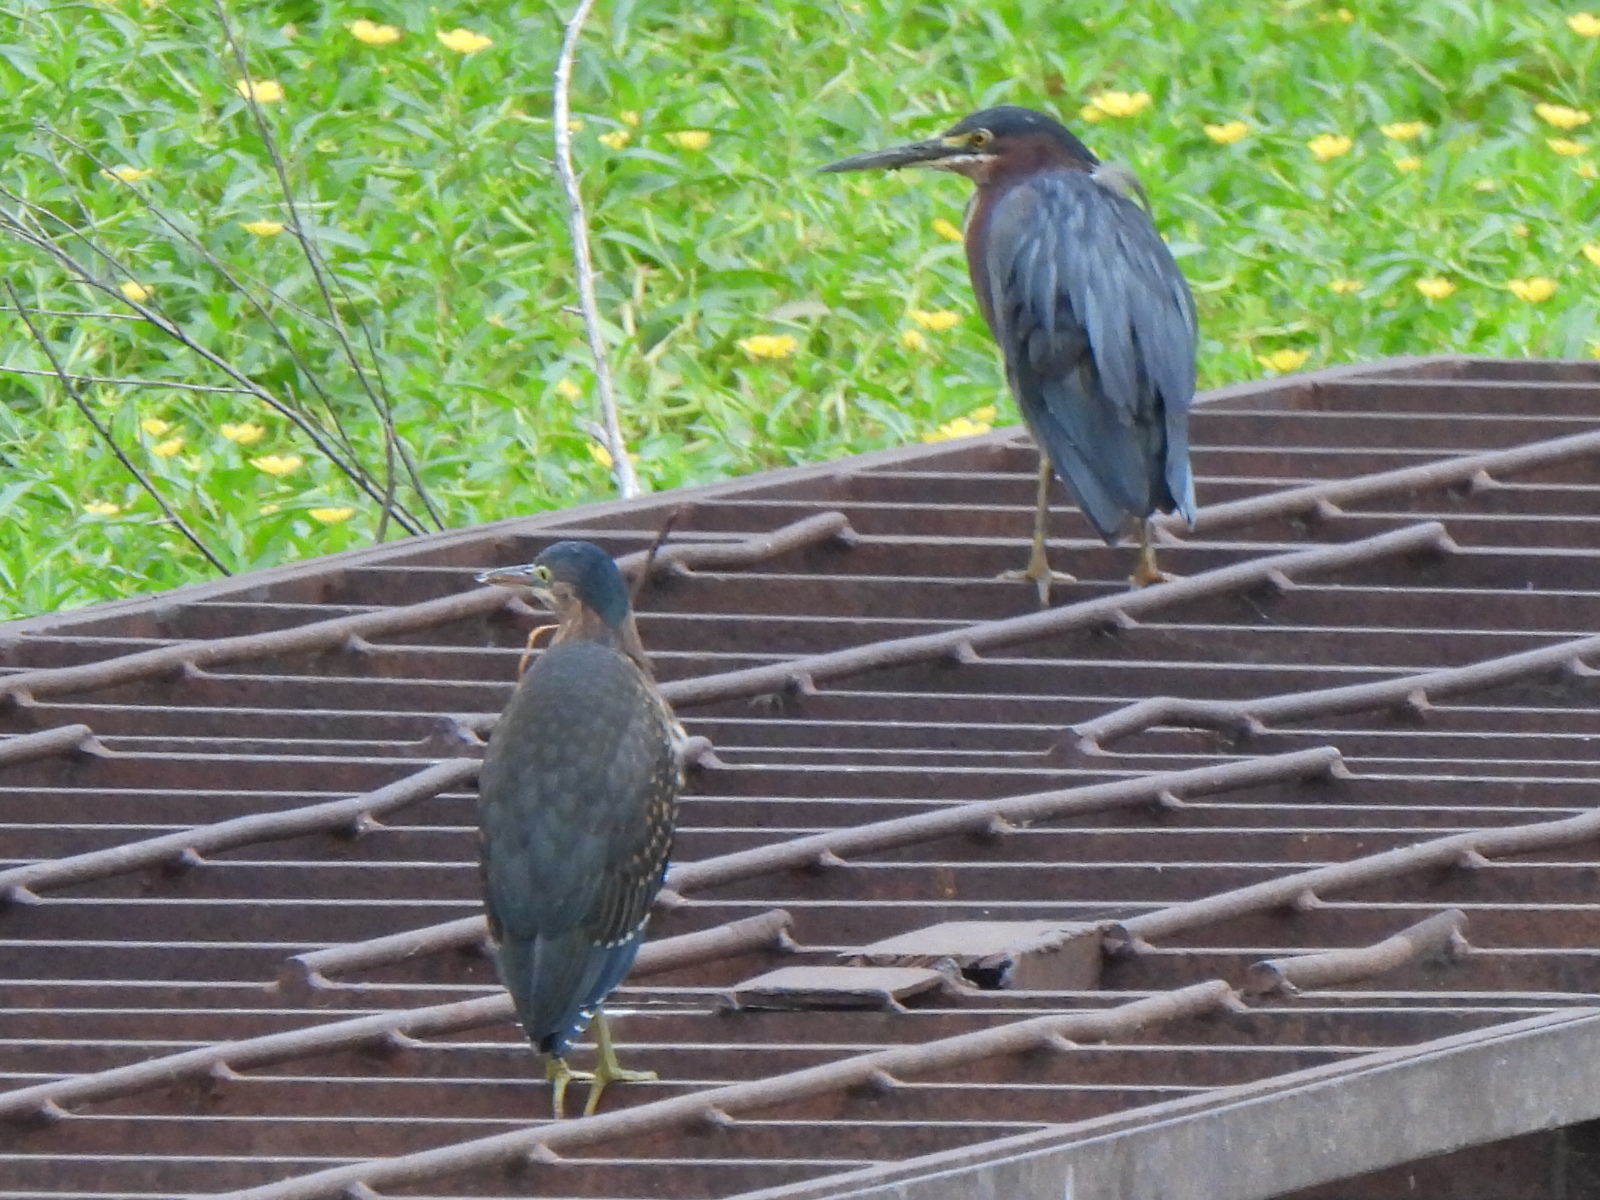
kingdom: Animalia
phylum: Chordata
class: Aves
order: Pelecaniformes
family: Ardeidae
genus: Butorides
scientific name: Butorides virescens
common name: Green heron
